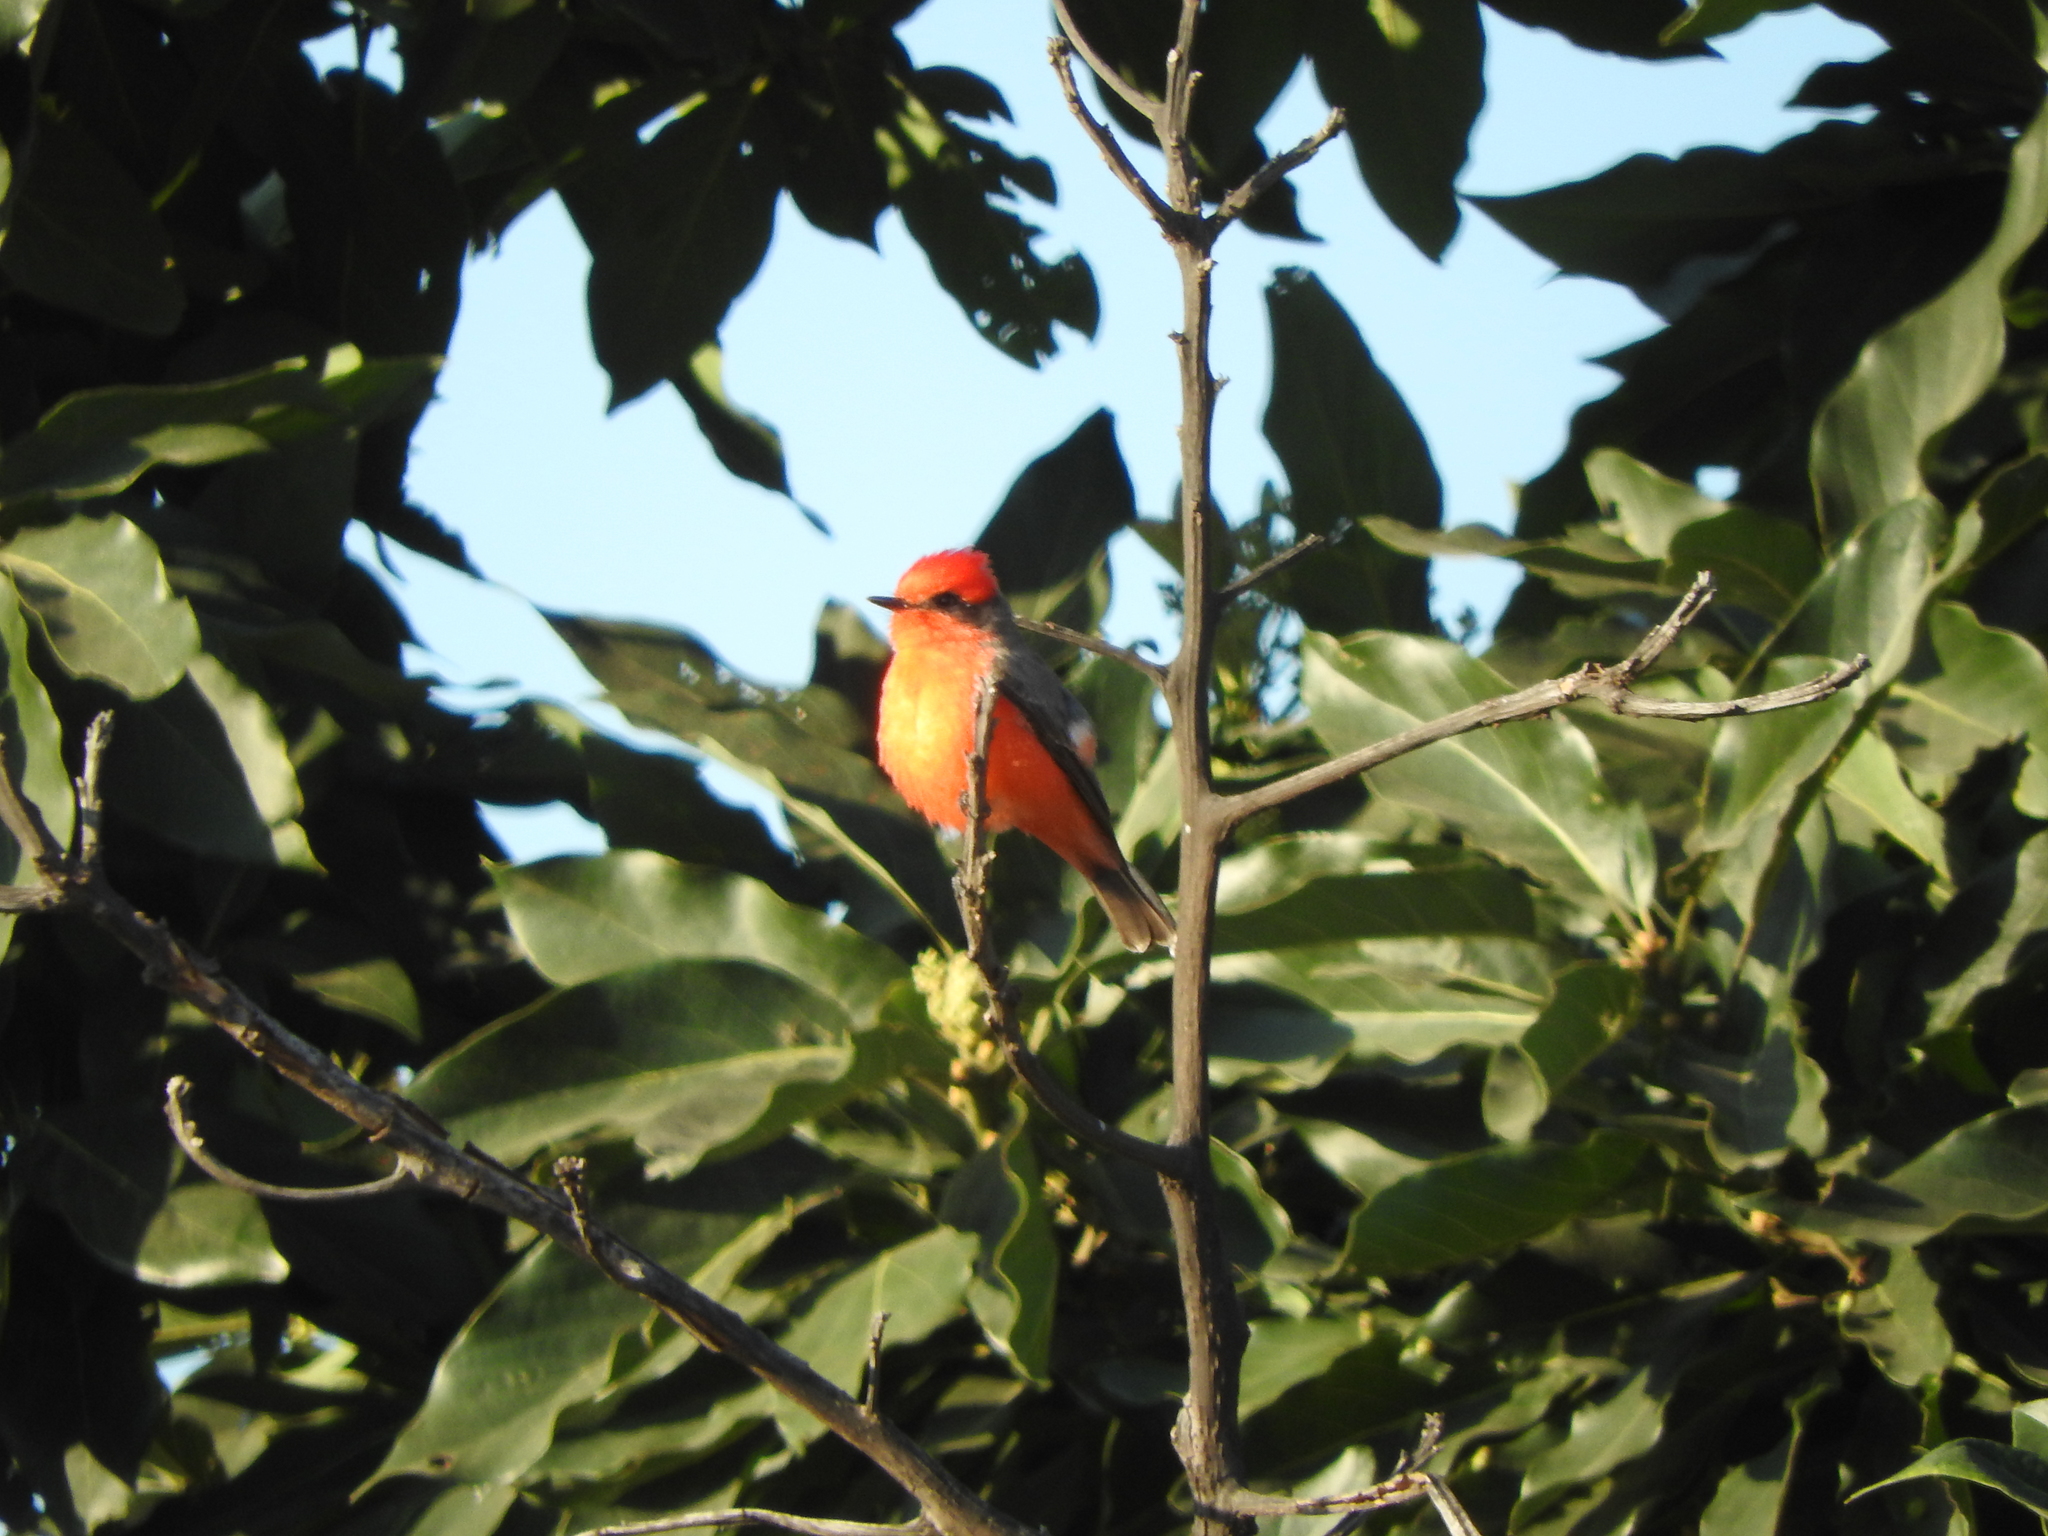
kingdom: Animalia
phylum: Chordata
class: Aves
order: Passeriformes
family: Tyrannidae
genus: Pyrocephalus
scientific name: Pyrocephalus rubinus
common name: Vermilion flycatcher
